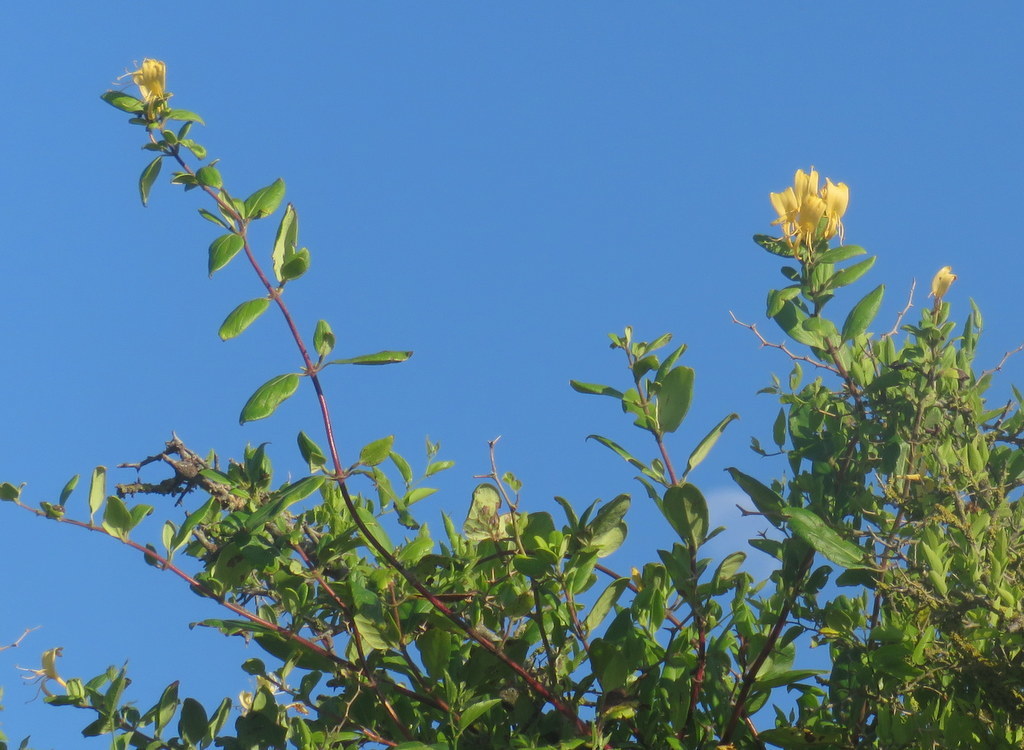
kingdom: Plantae
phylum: Tracheophyta
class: Magnoliopsida
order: Dipsacales
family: Caprifoliaceae
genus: Lonicera
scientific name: Lonicera japonica
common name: Japanese honeysuckle
